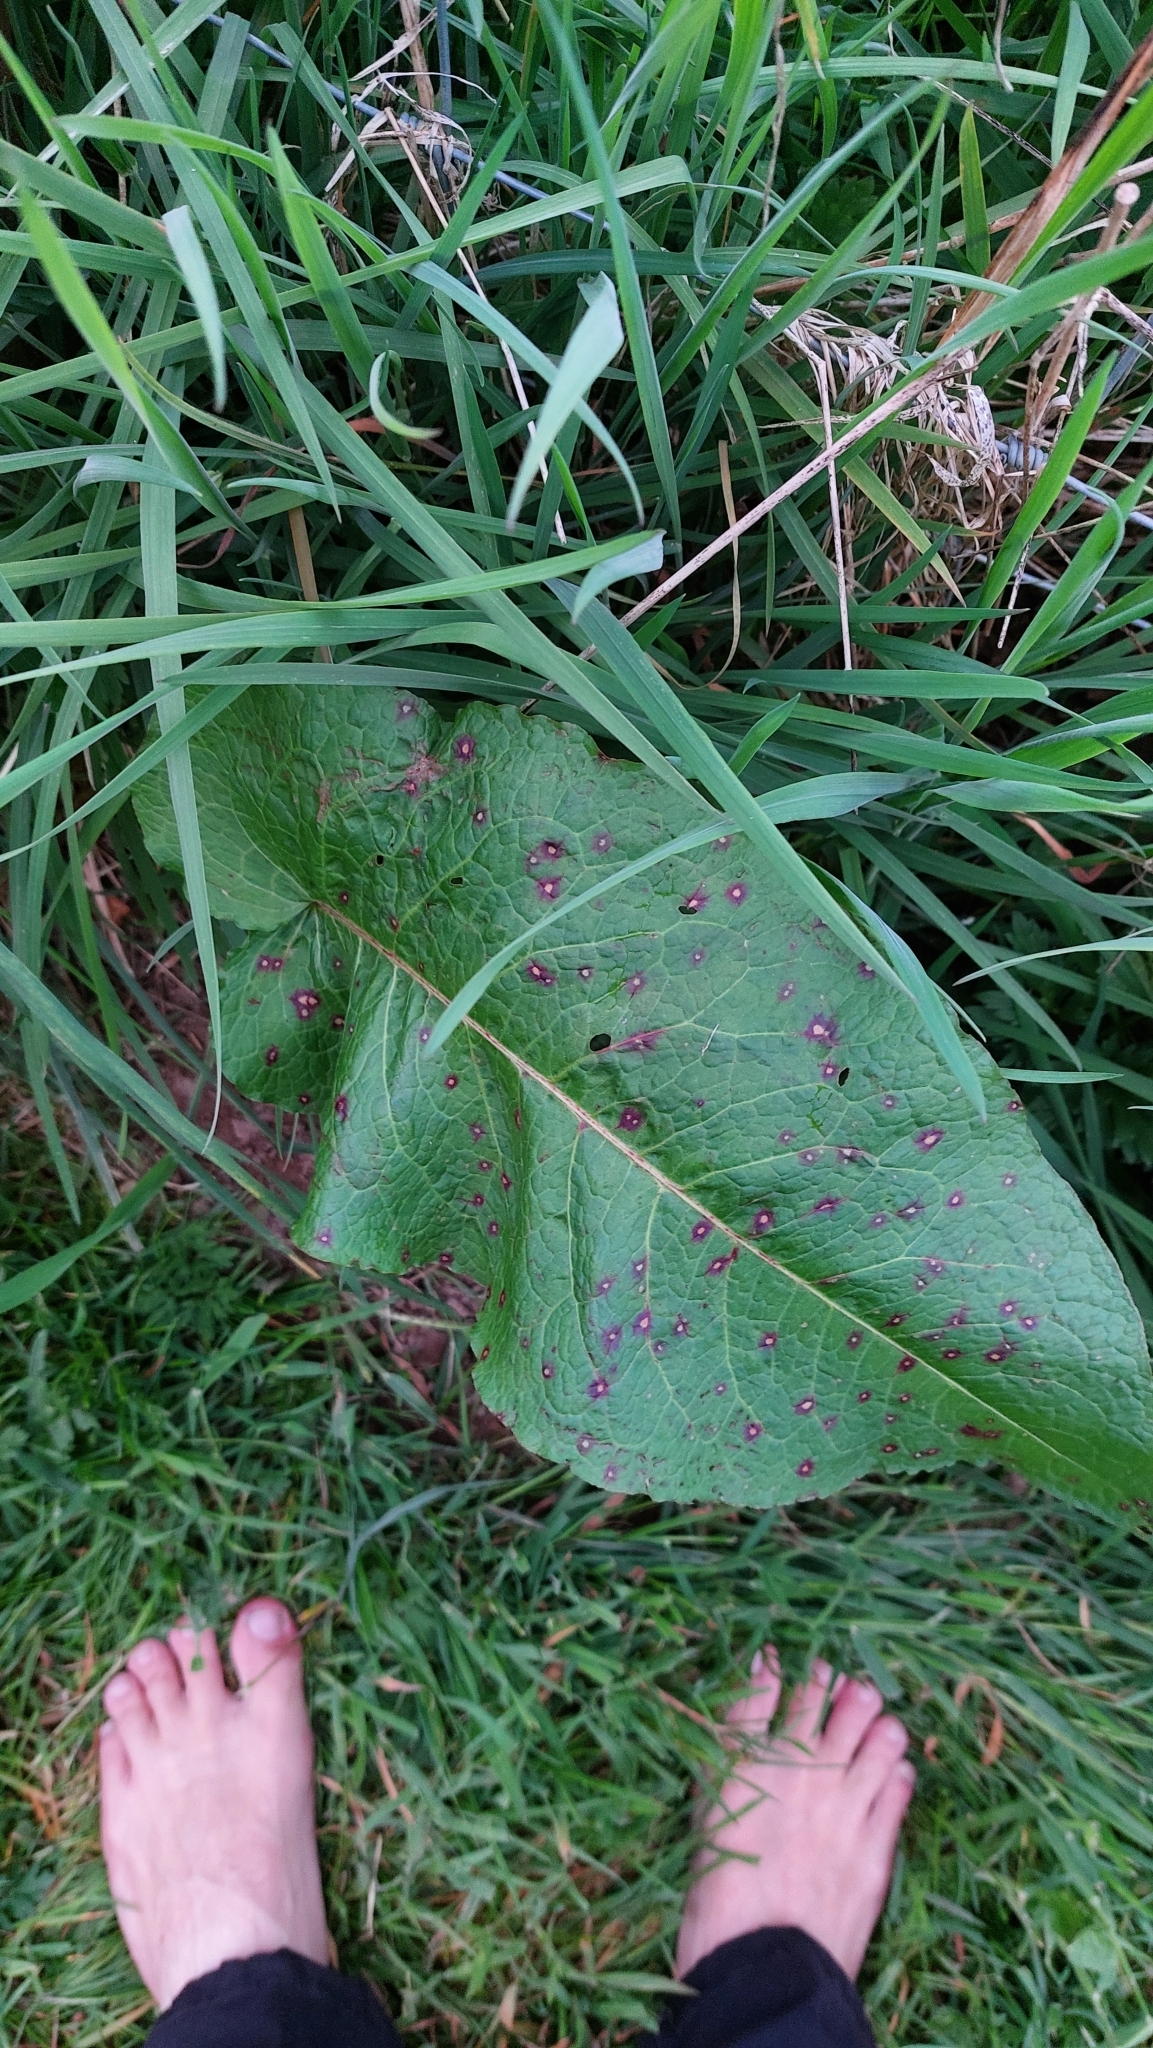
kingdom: Plantae
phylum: Tracheophyta
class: Magnoliopsida
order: Caryophyllales
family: Polygonaceae
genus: Rumex
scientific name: Rumex obtusifolius
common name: Bitter dock
